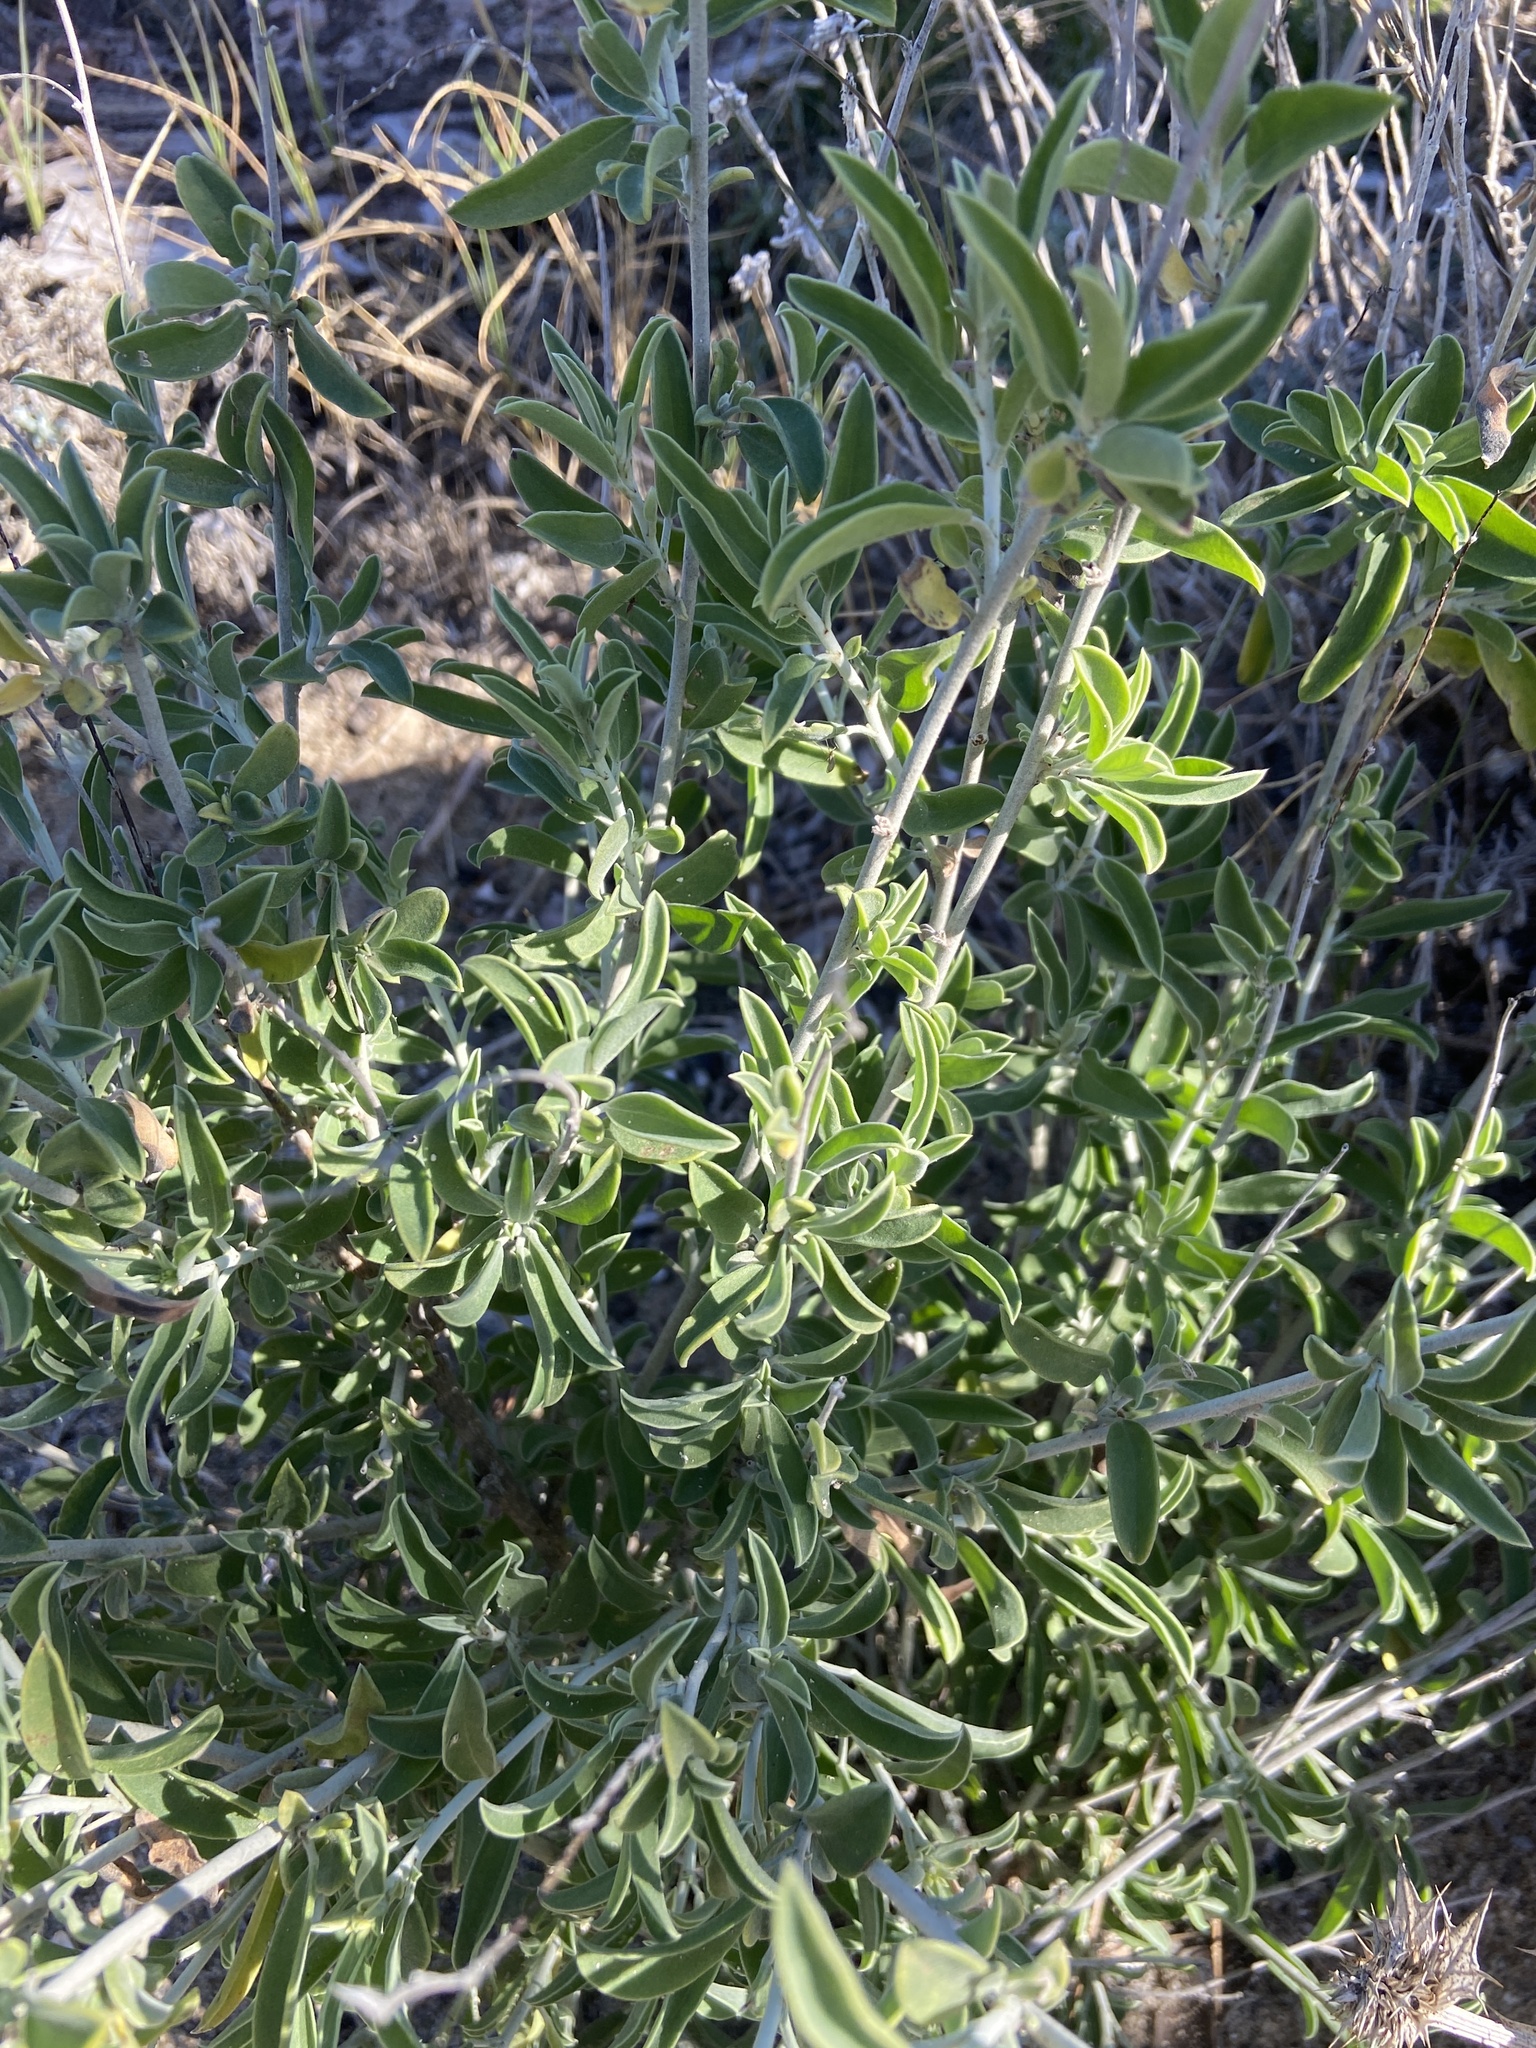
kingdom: Plantae
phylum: Tracheophyta
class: Magnoliopsida
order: Fabales
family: Fabaceae
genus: Anthyllis
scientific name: Anthyllis cytisoides
